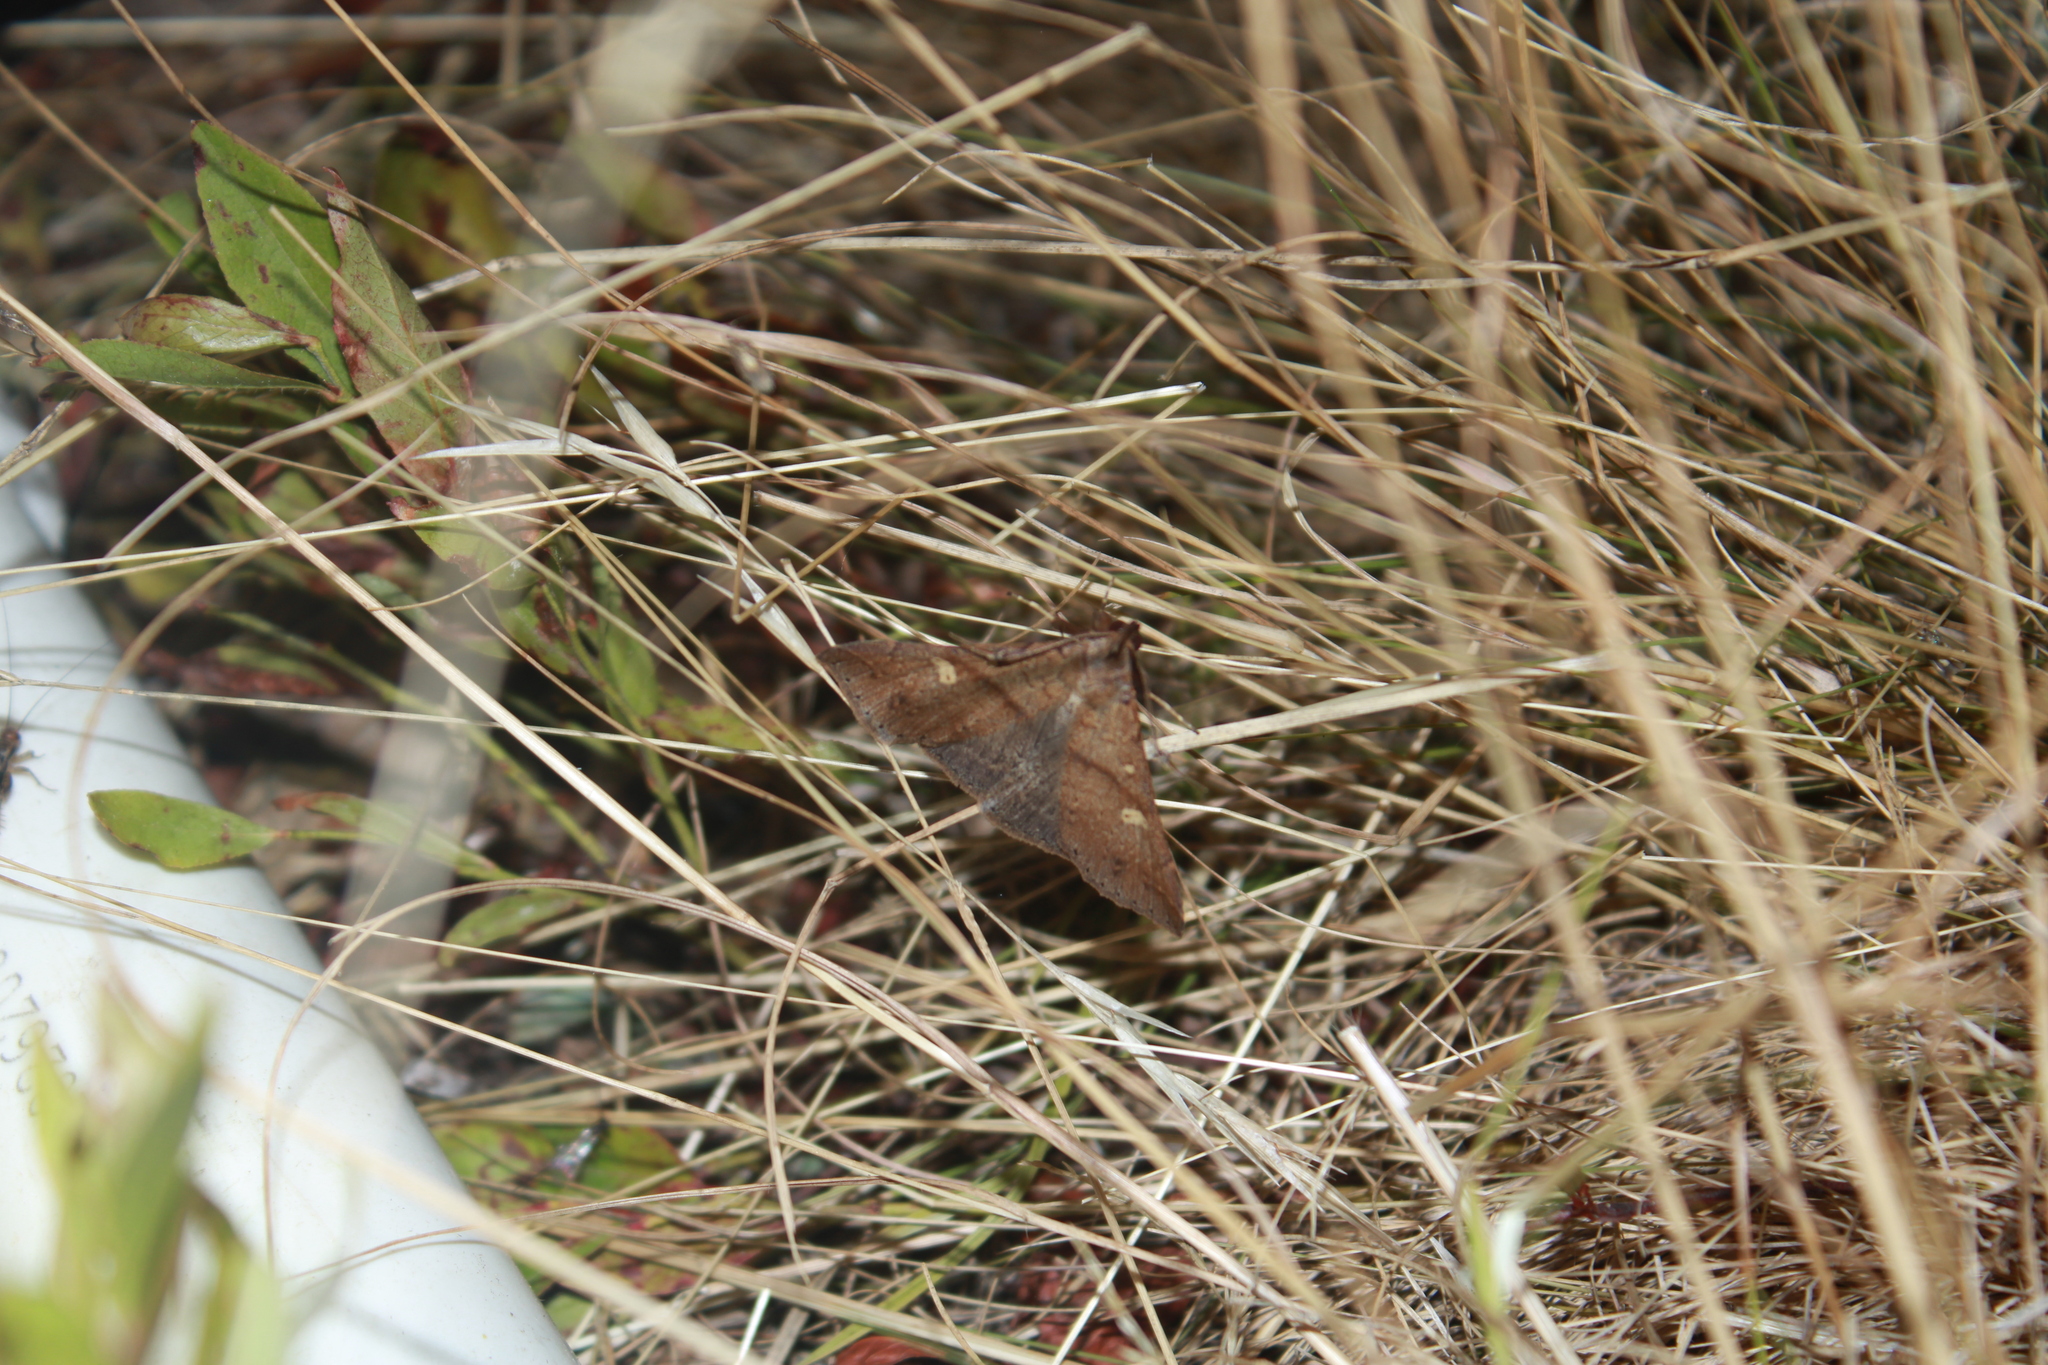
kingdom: Animalia
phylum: Arthropoda
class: Insecta
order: Lepidoptera
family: Erebidae
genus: Renia
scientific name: Renia discoloralis
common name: Discolored renia moth
